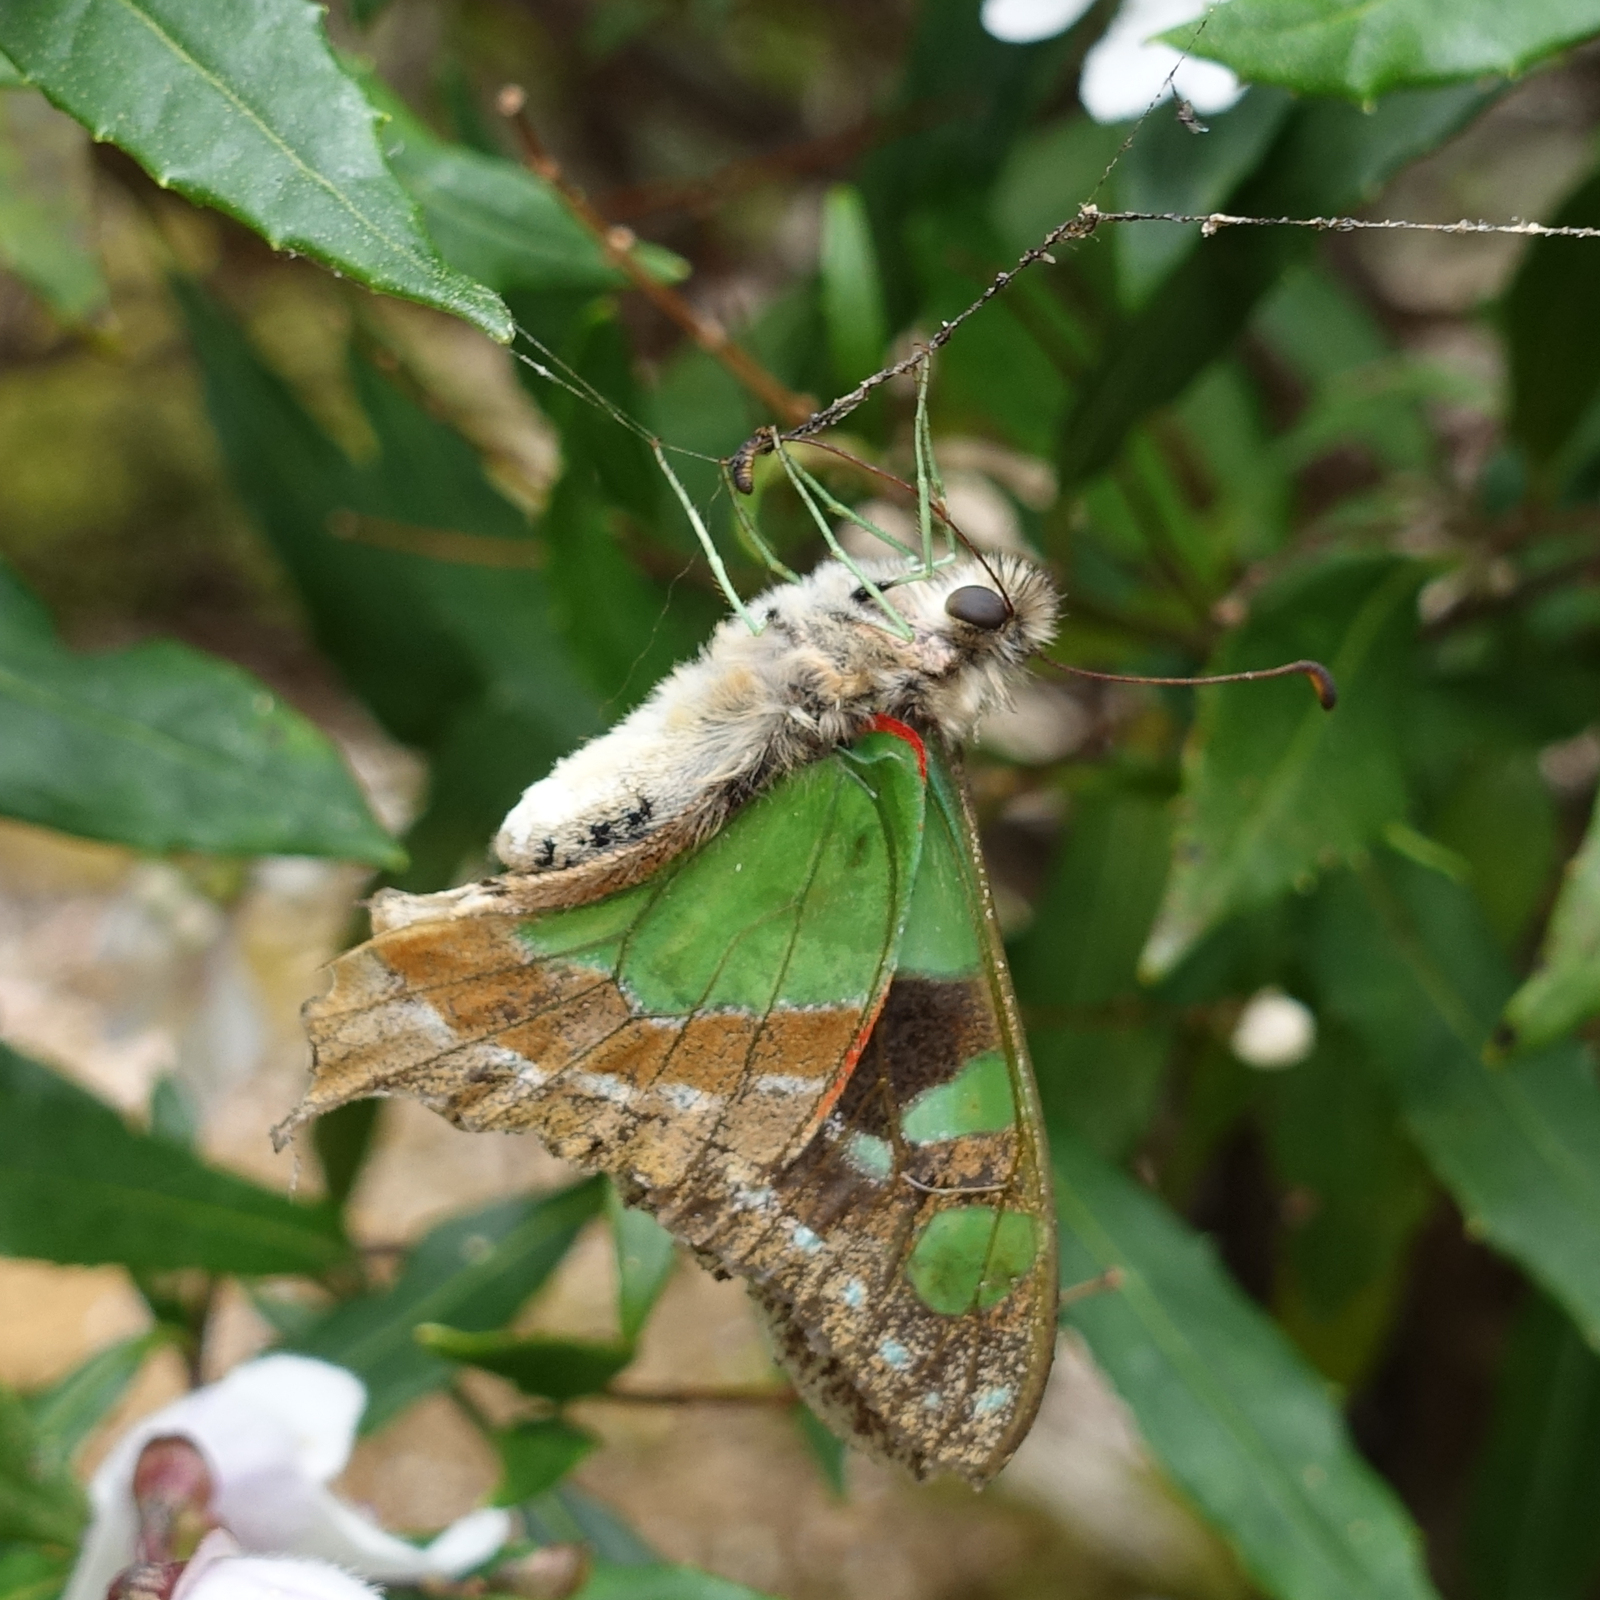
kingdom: Animalia
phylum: Arthropoda
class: Insecta
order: Lepidoptera
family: Papilionidae
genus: Graphium
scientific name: Graphium macleayanus
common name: Macleay's swallowtail
